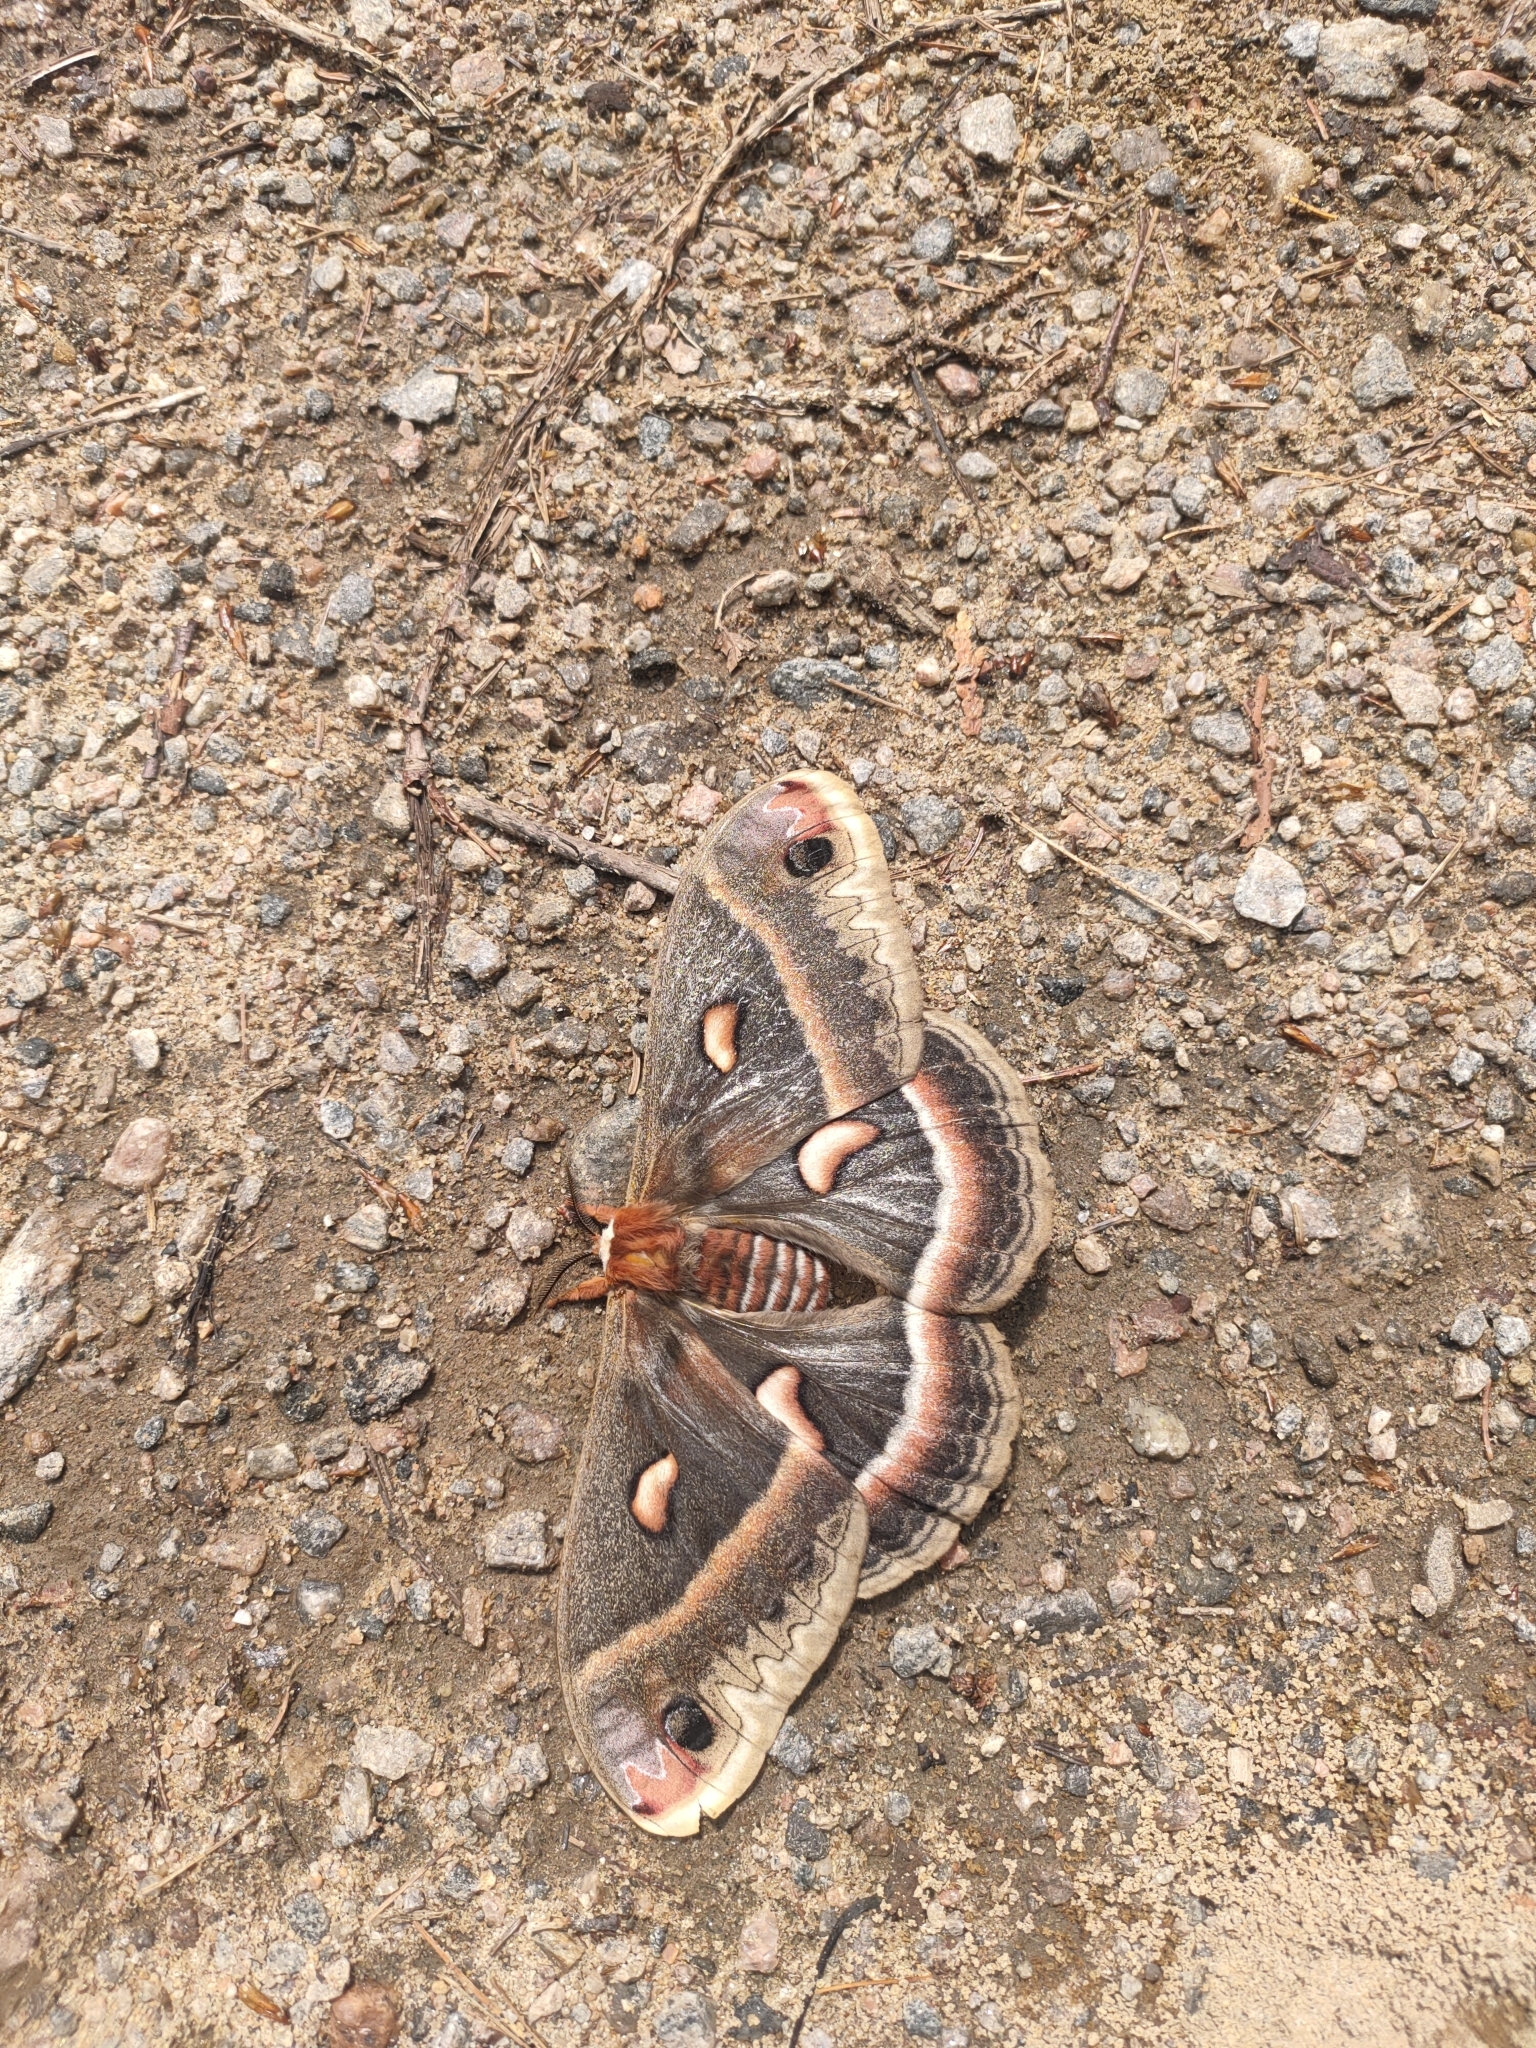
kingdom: Animalia
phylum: Arthropoda
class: Insecta
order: Lepidoptera
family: Saturniidae
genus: Hyalophora
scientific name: Hyalophora cecropia
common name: Cecropia silkmoth
